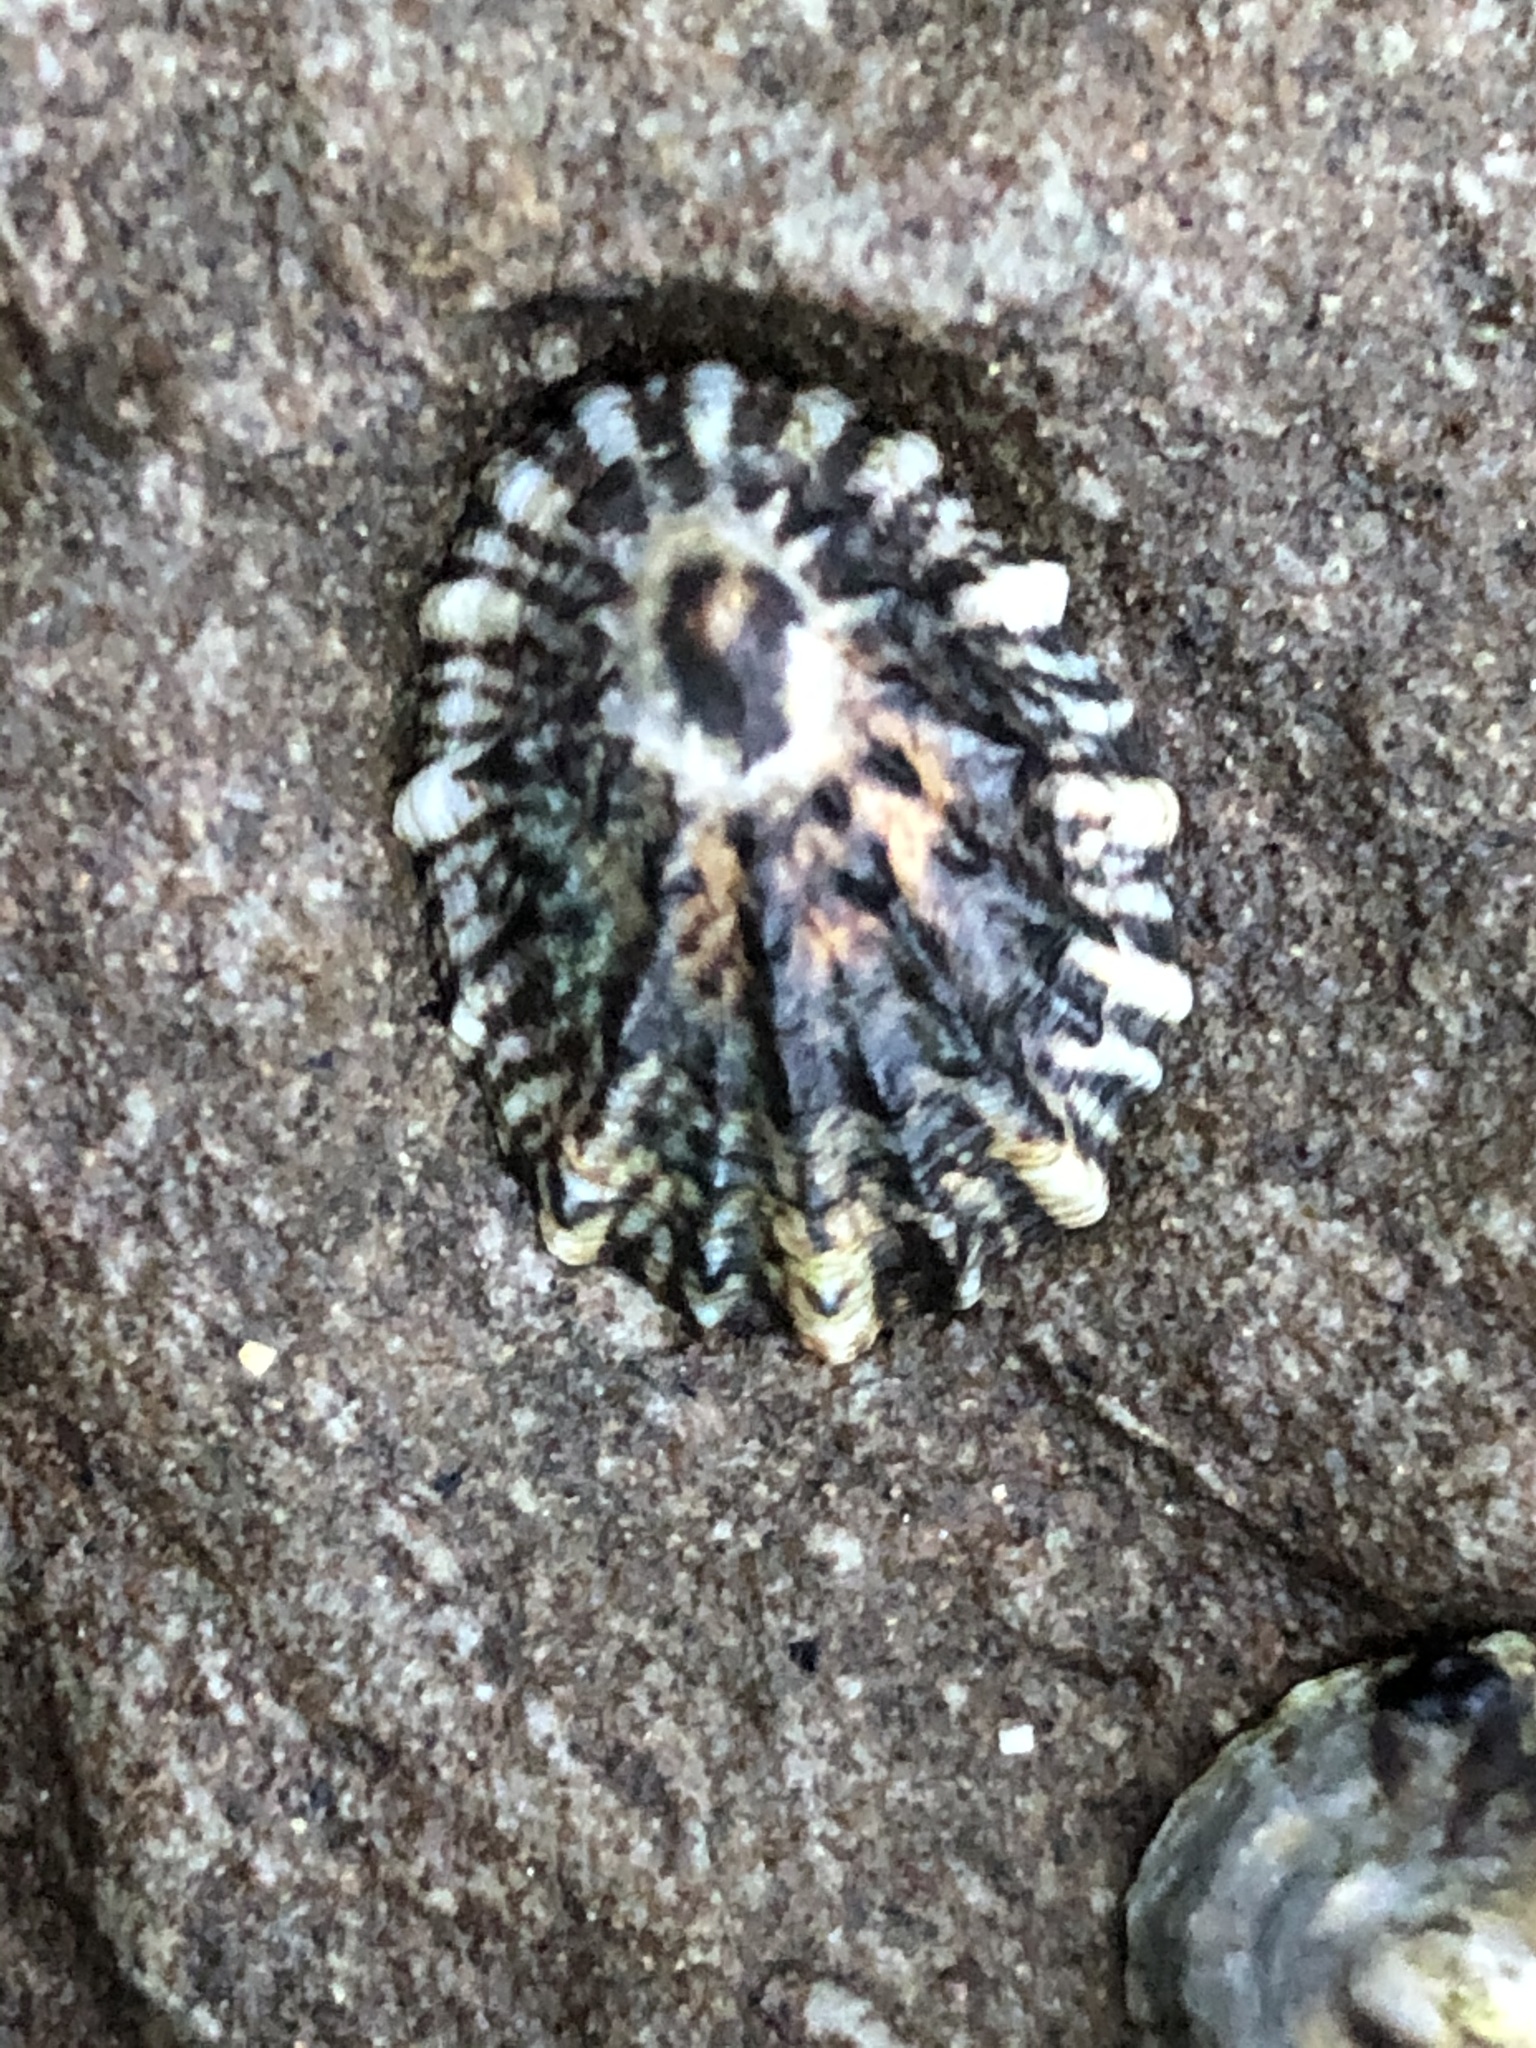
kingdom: Animalia
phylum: Mollusca
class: Gastropoda
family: Lottiidae
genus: Lottia
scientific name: Lottia scabra
